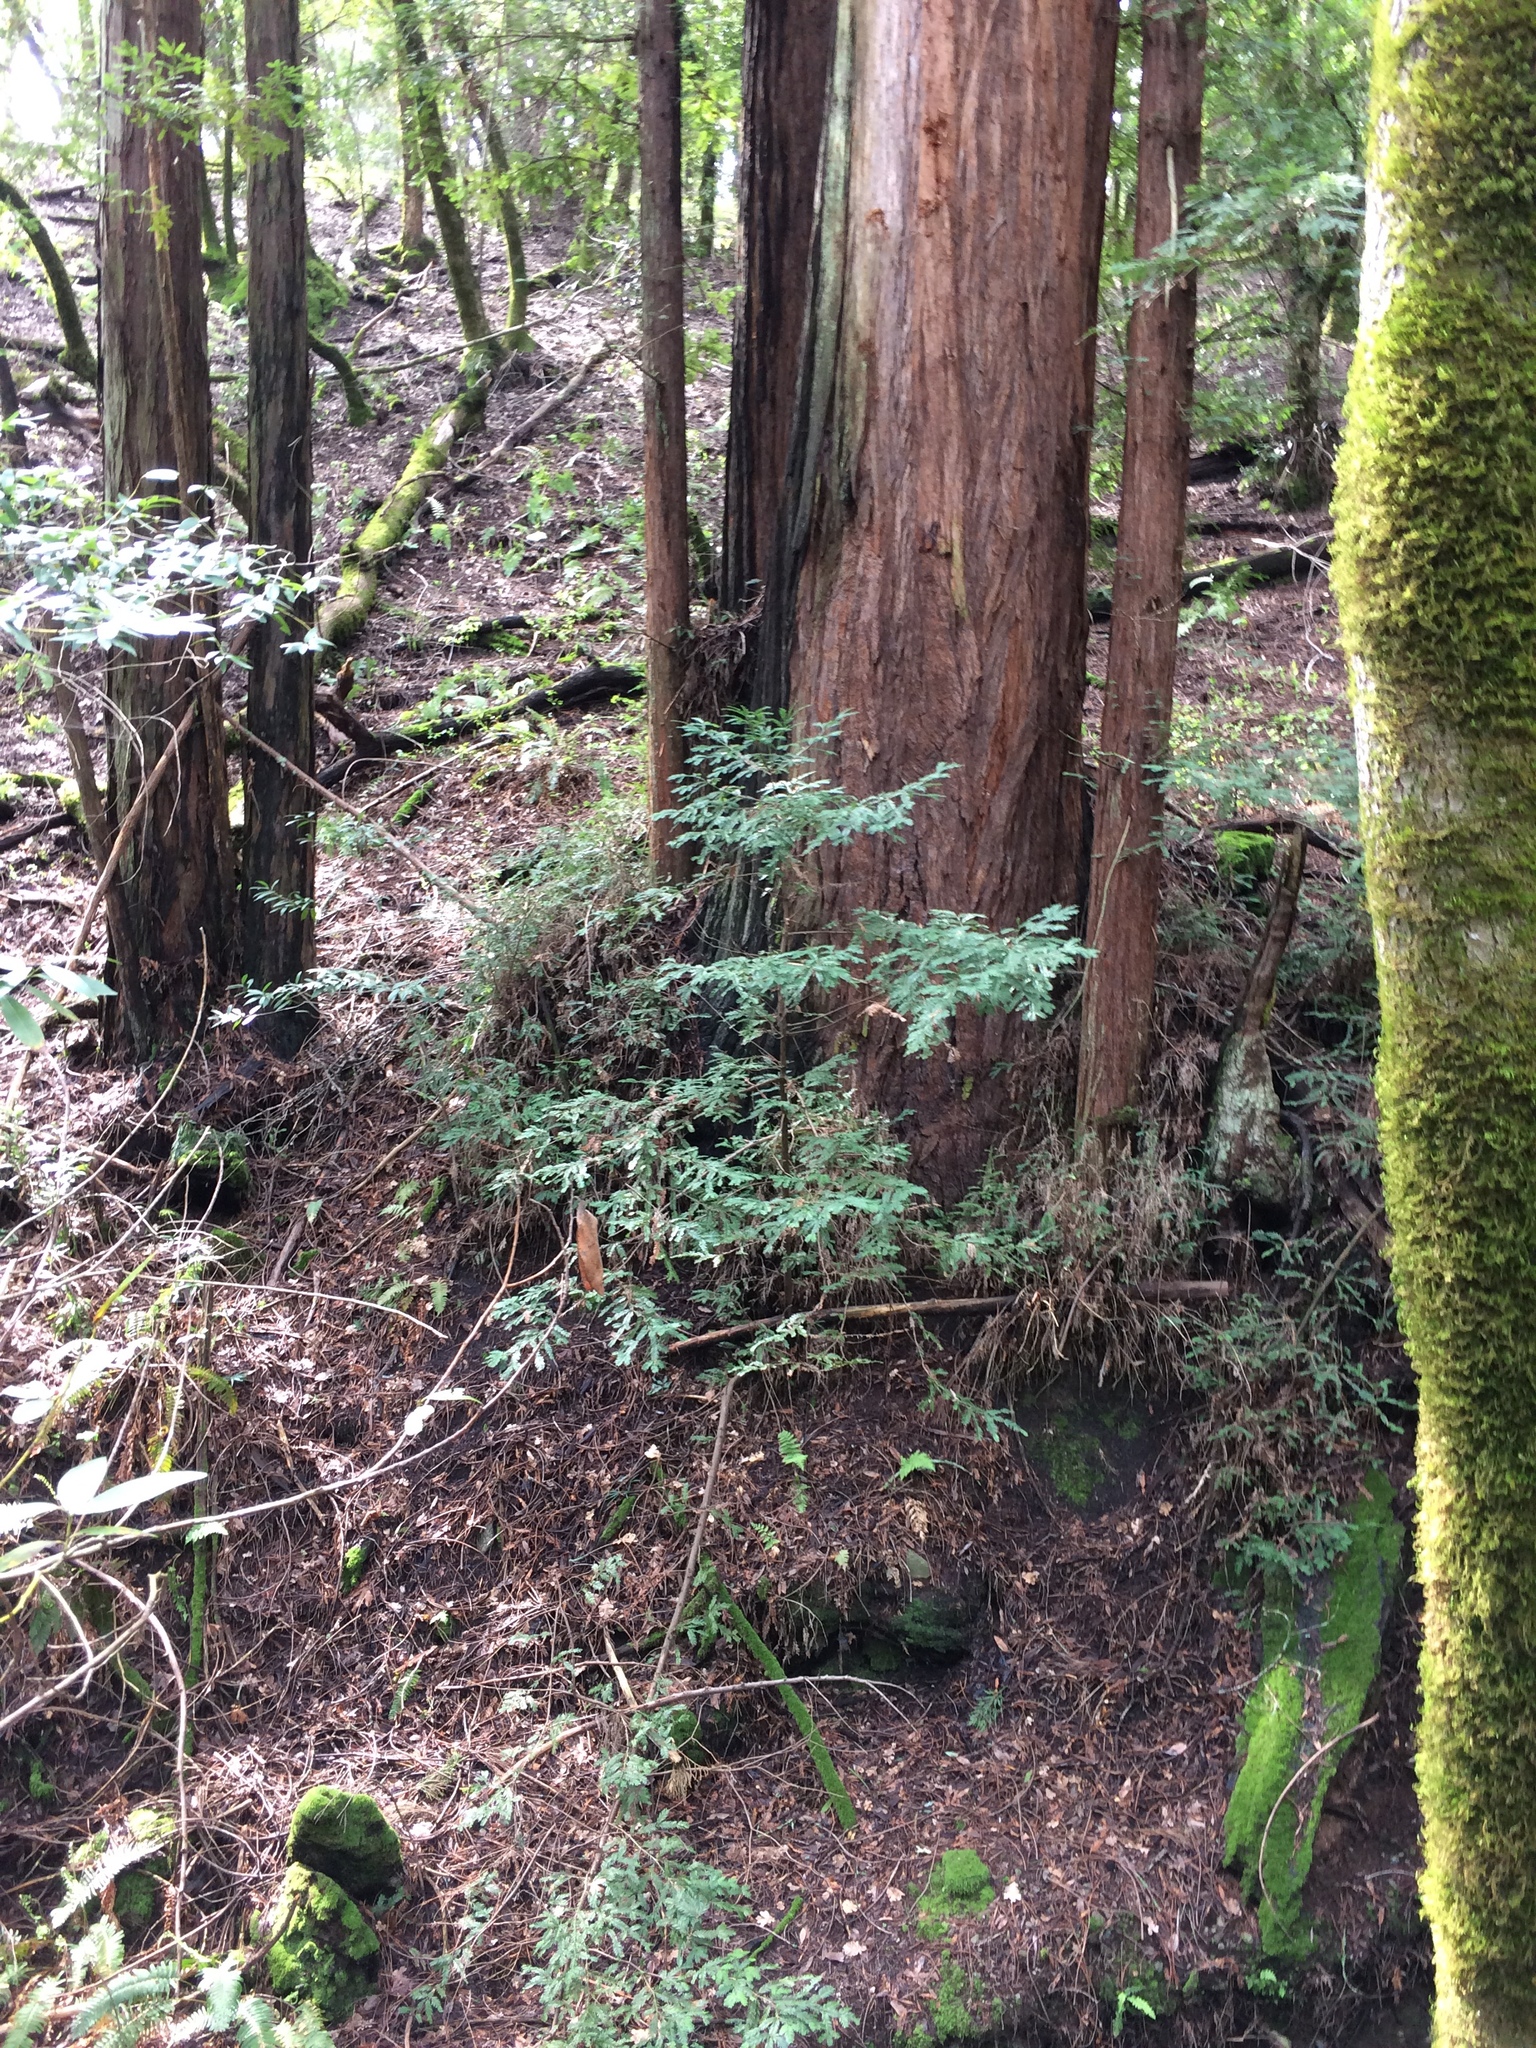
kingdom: Plantae
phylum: Tracheophyta
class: Pinopsida
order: Pinales
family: Cupressaceae
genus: Sequoia
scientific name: Sequoia sempervirens
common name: Coast redwood
